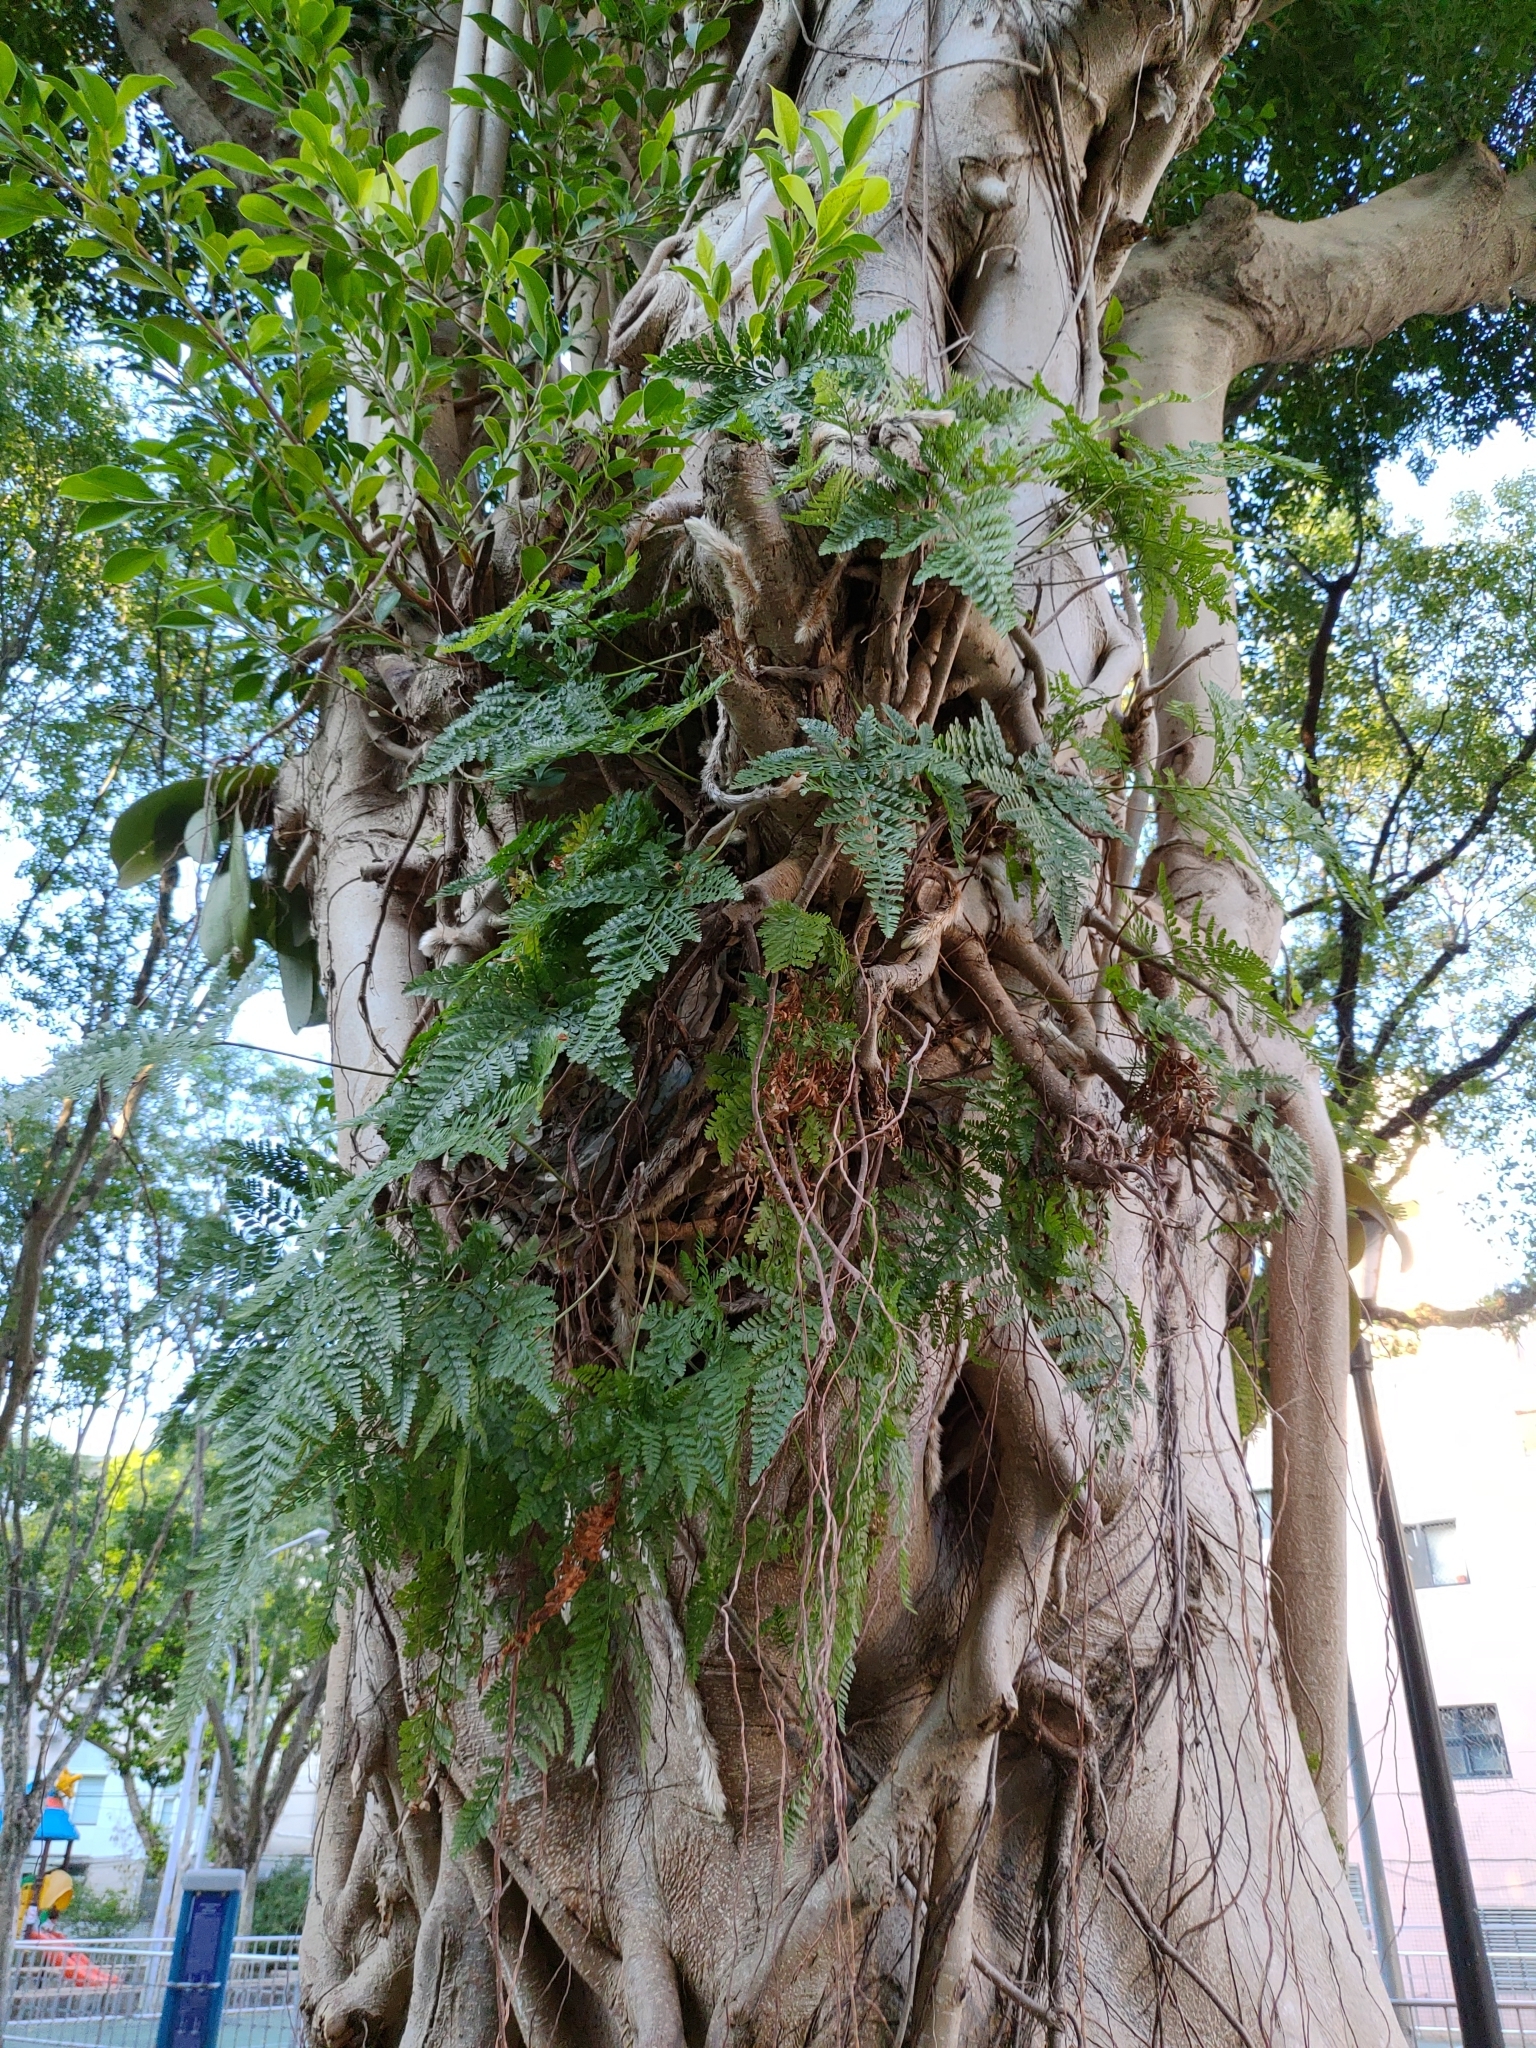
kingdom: Plantae
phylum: Tracheophyta
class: Polypodiopsida
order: Polypodiales
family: Davalliaceae
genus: Davallia
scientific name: Davallia griffithiana
